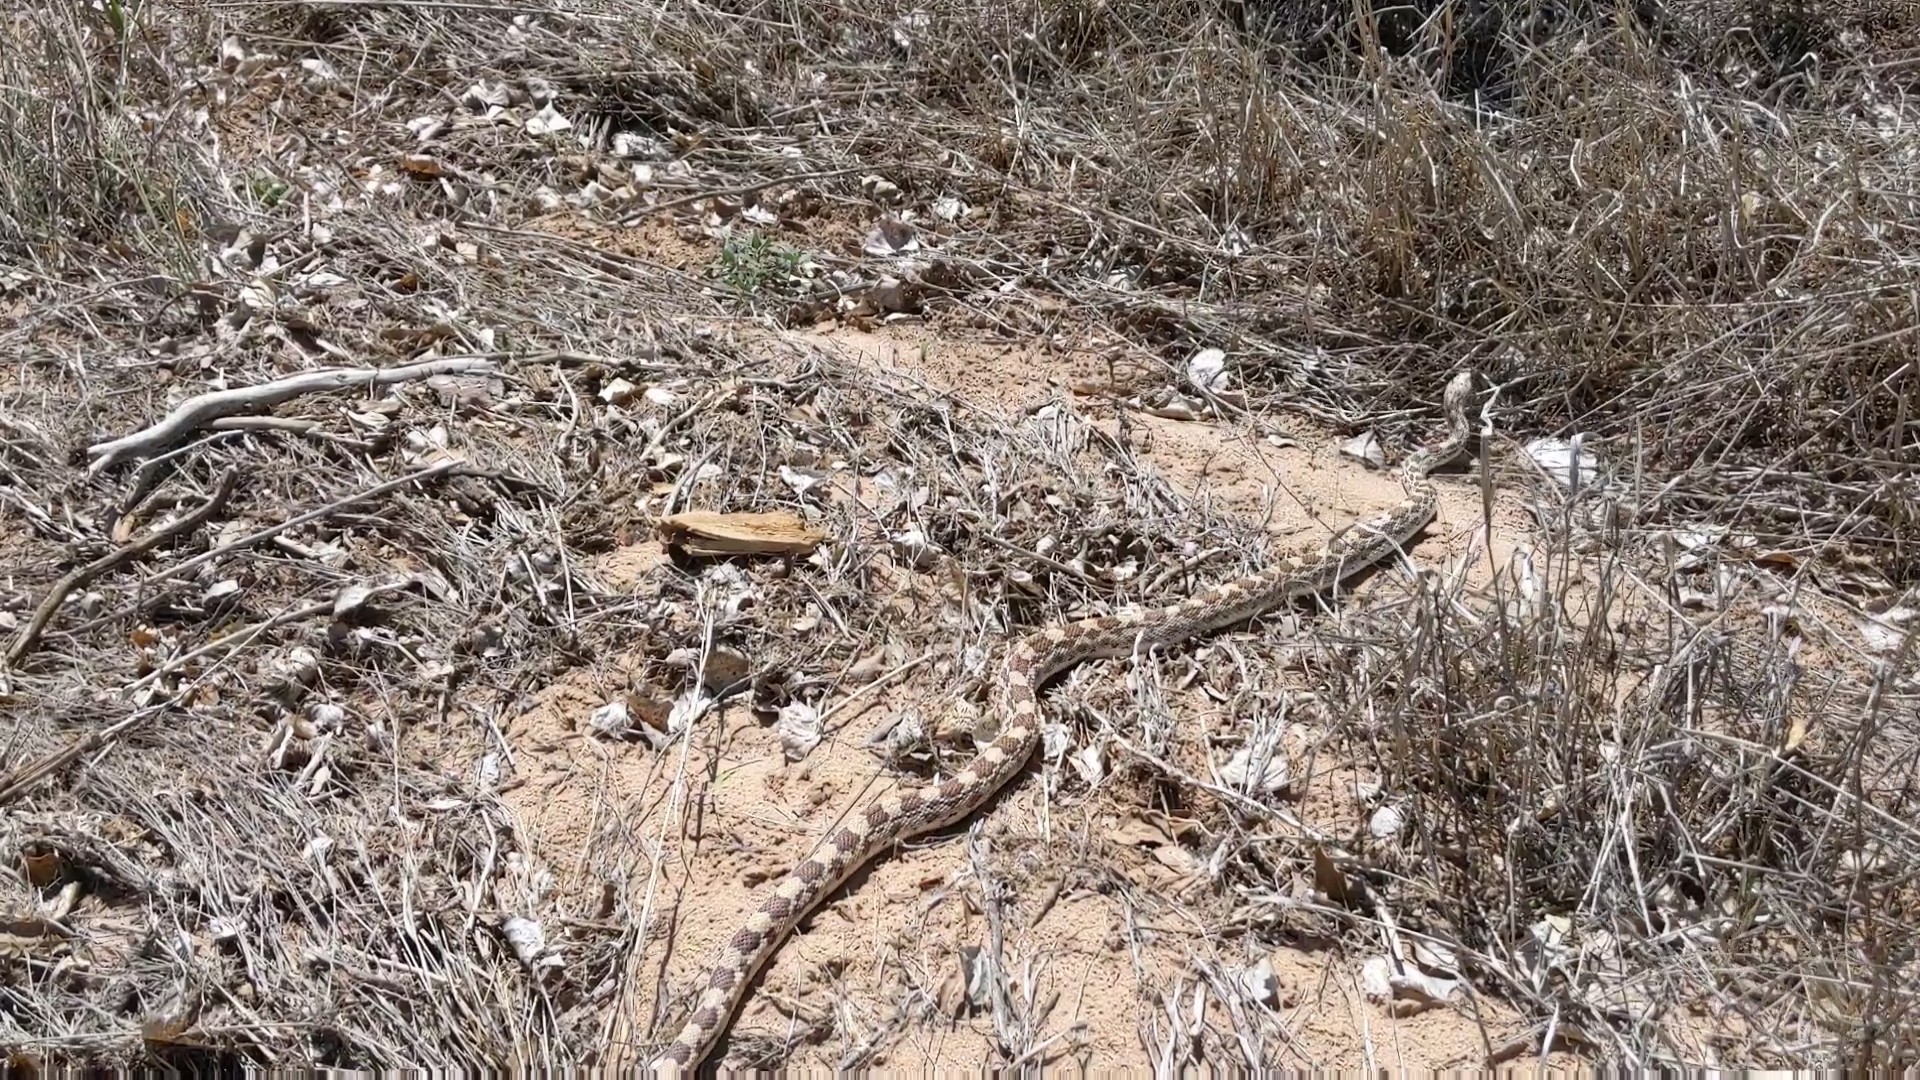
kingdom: Animalia
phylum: Chordata
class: Squamata
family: Colubridae
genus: Pituophis
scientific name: Pituophis catenifer
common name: Gopher snake
